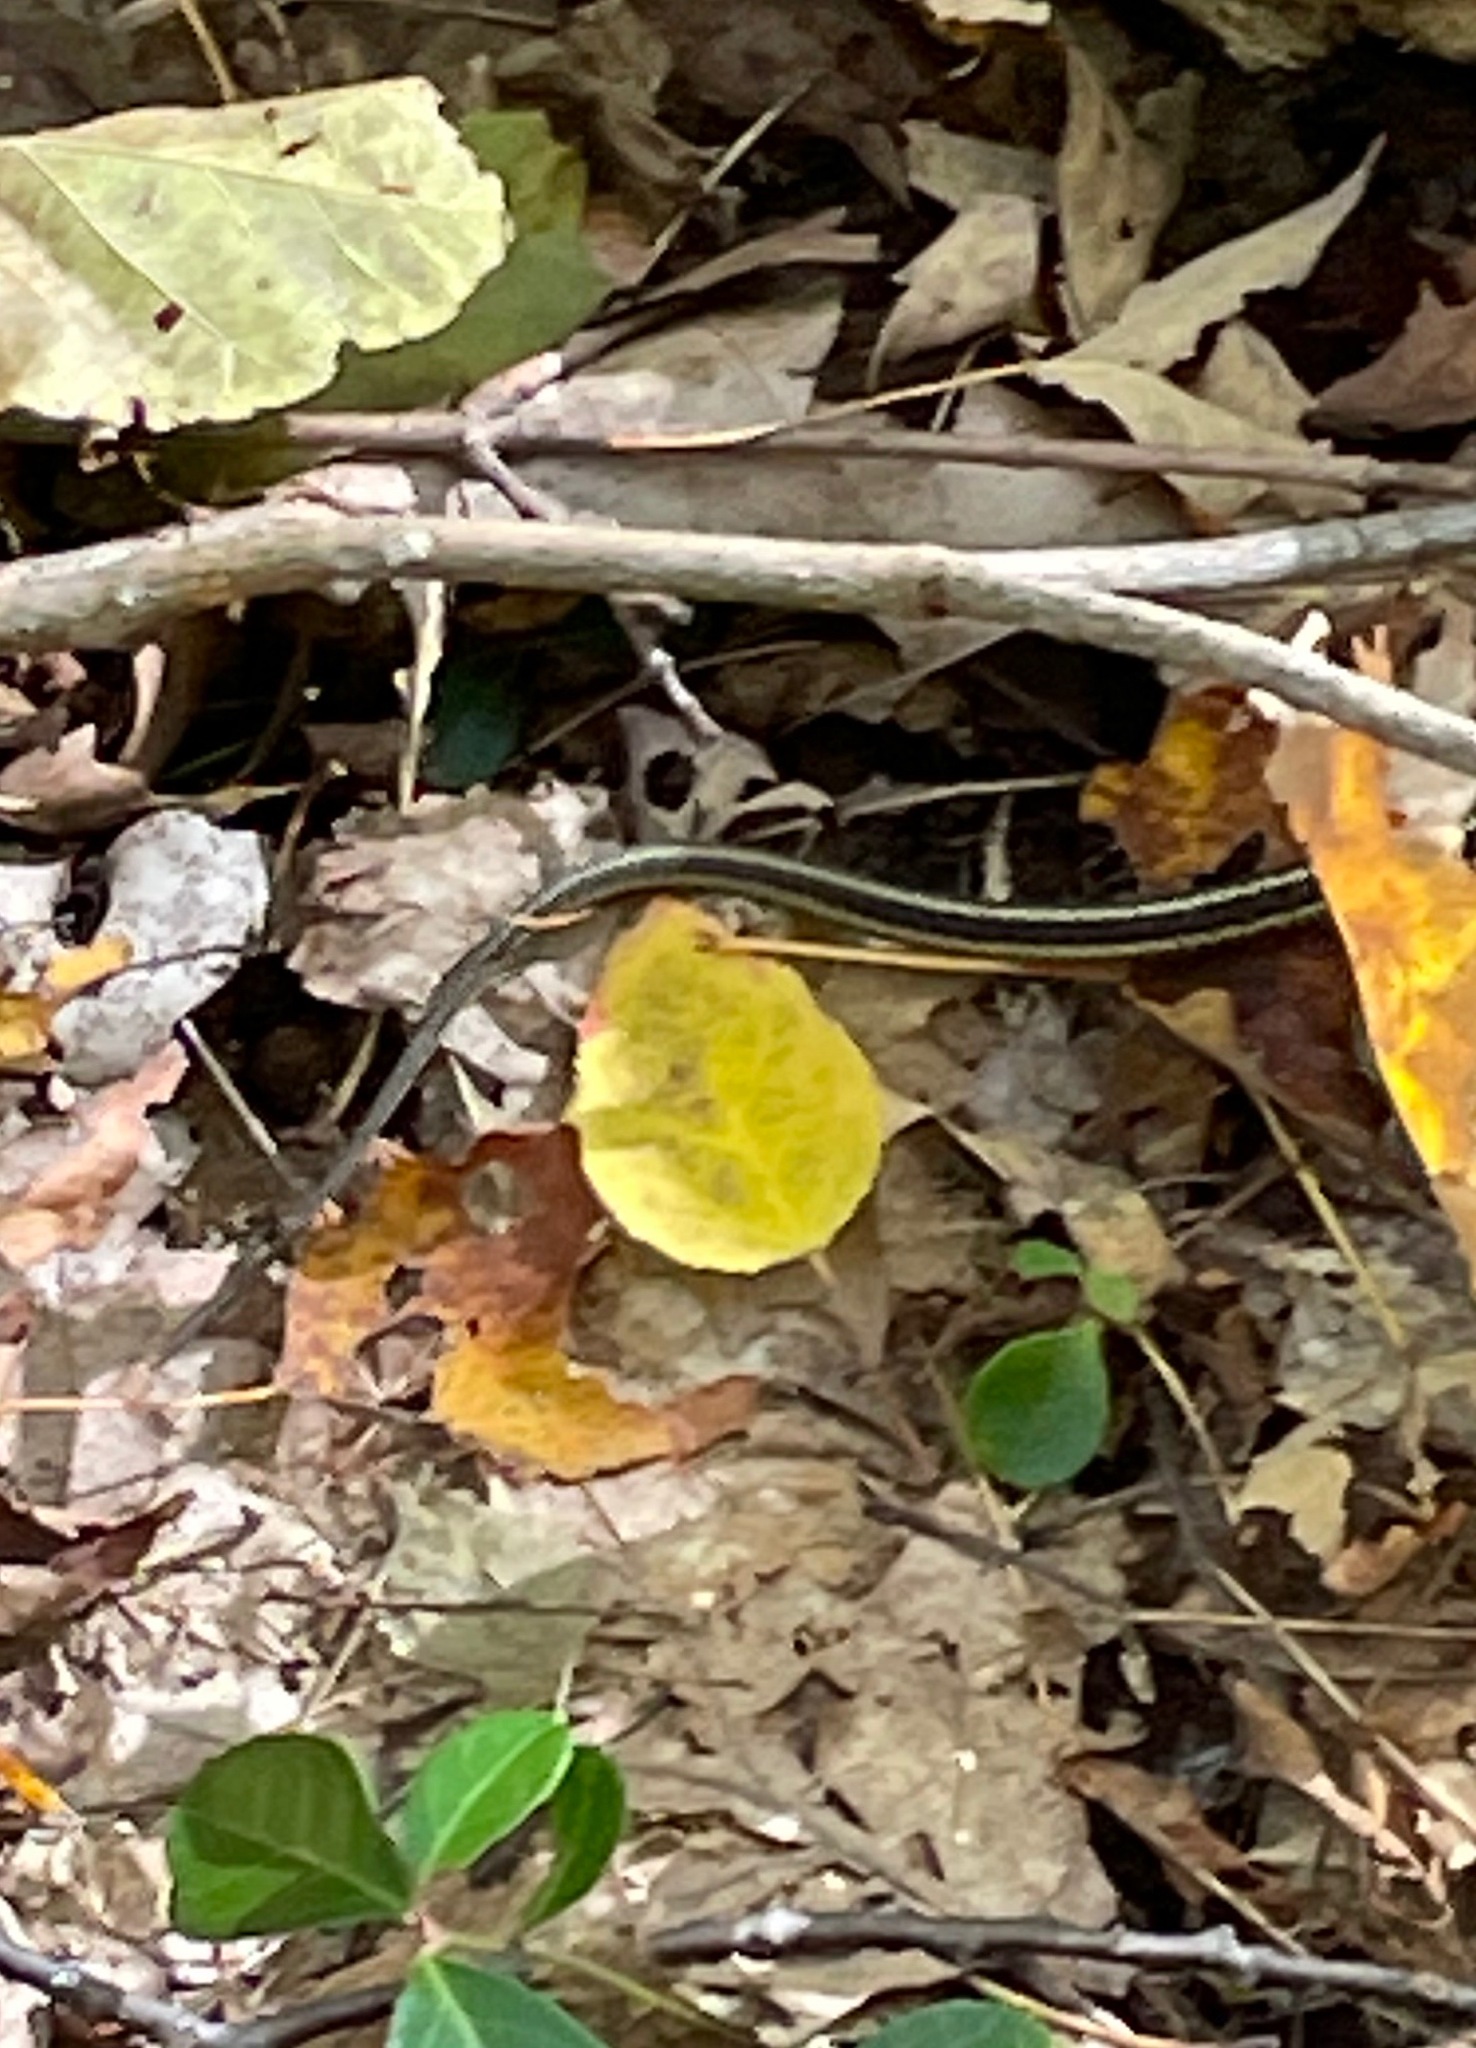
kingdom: Animalia
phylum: Chordata
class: Squamata
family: Colubridae
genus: Thamnophis
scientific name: Thamnophis sirtalis
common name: Common garter snake
